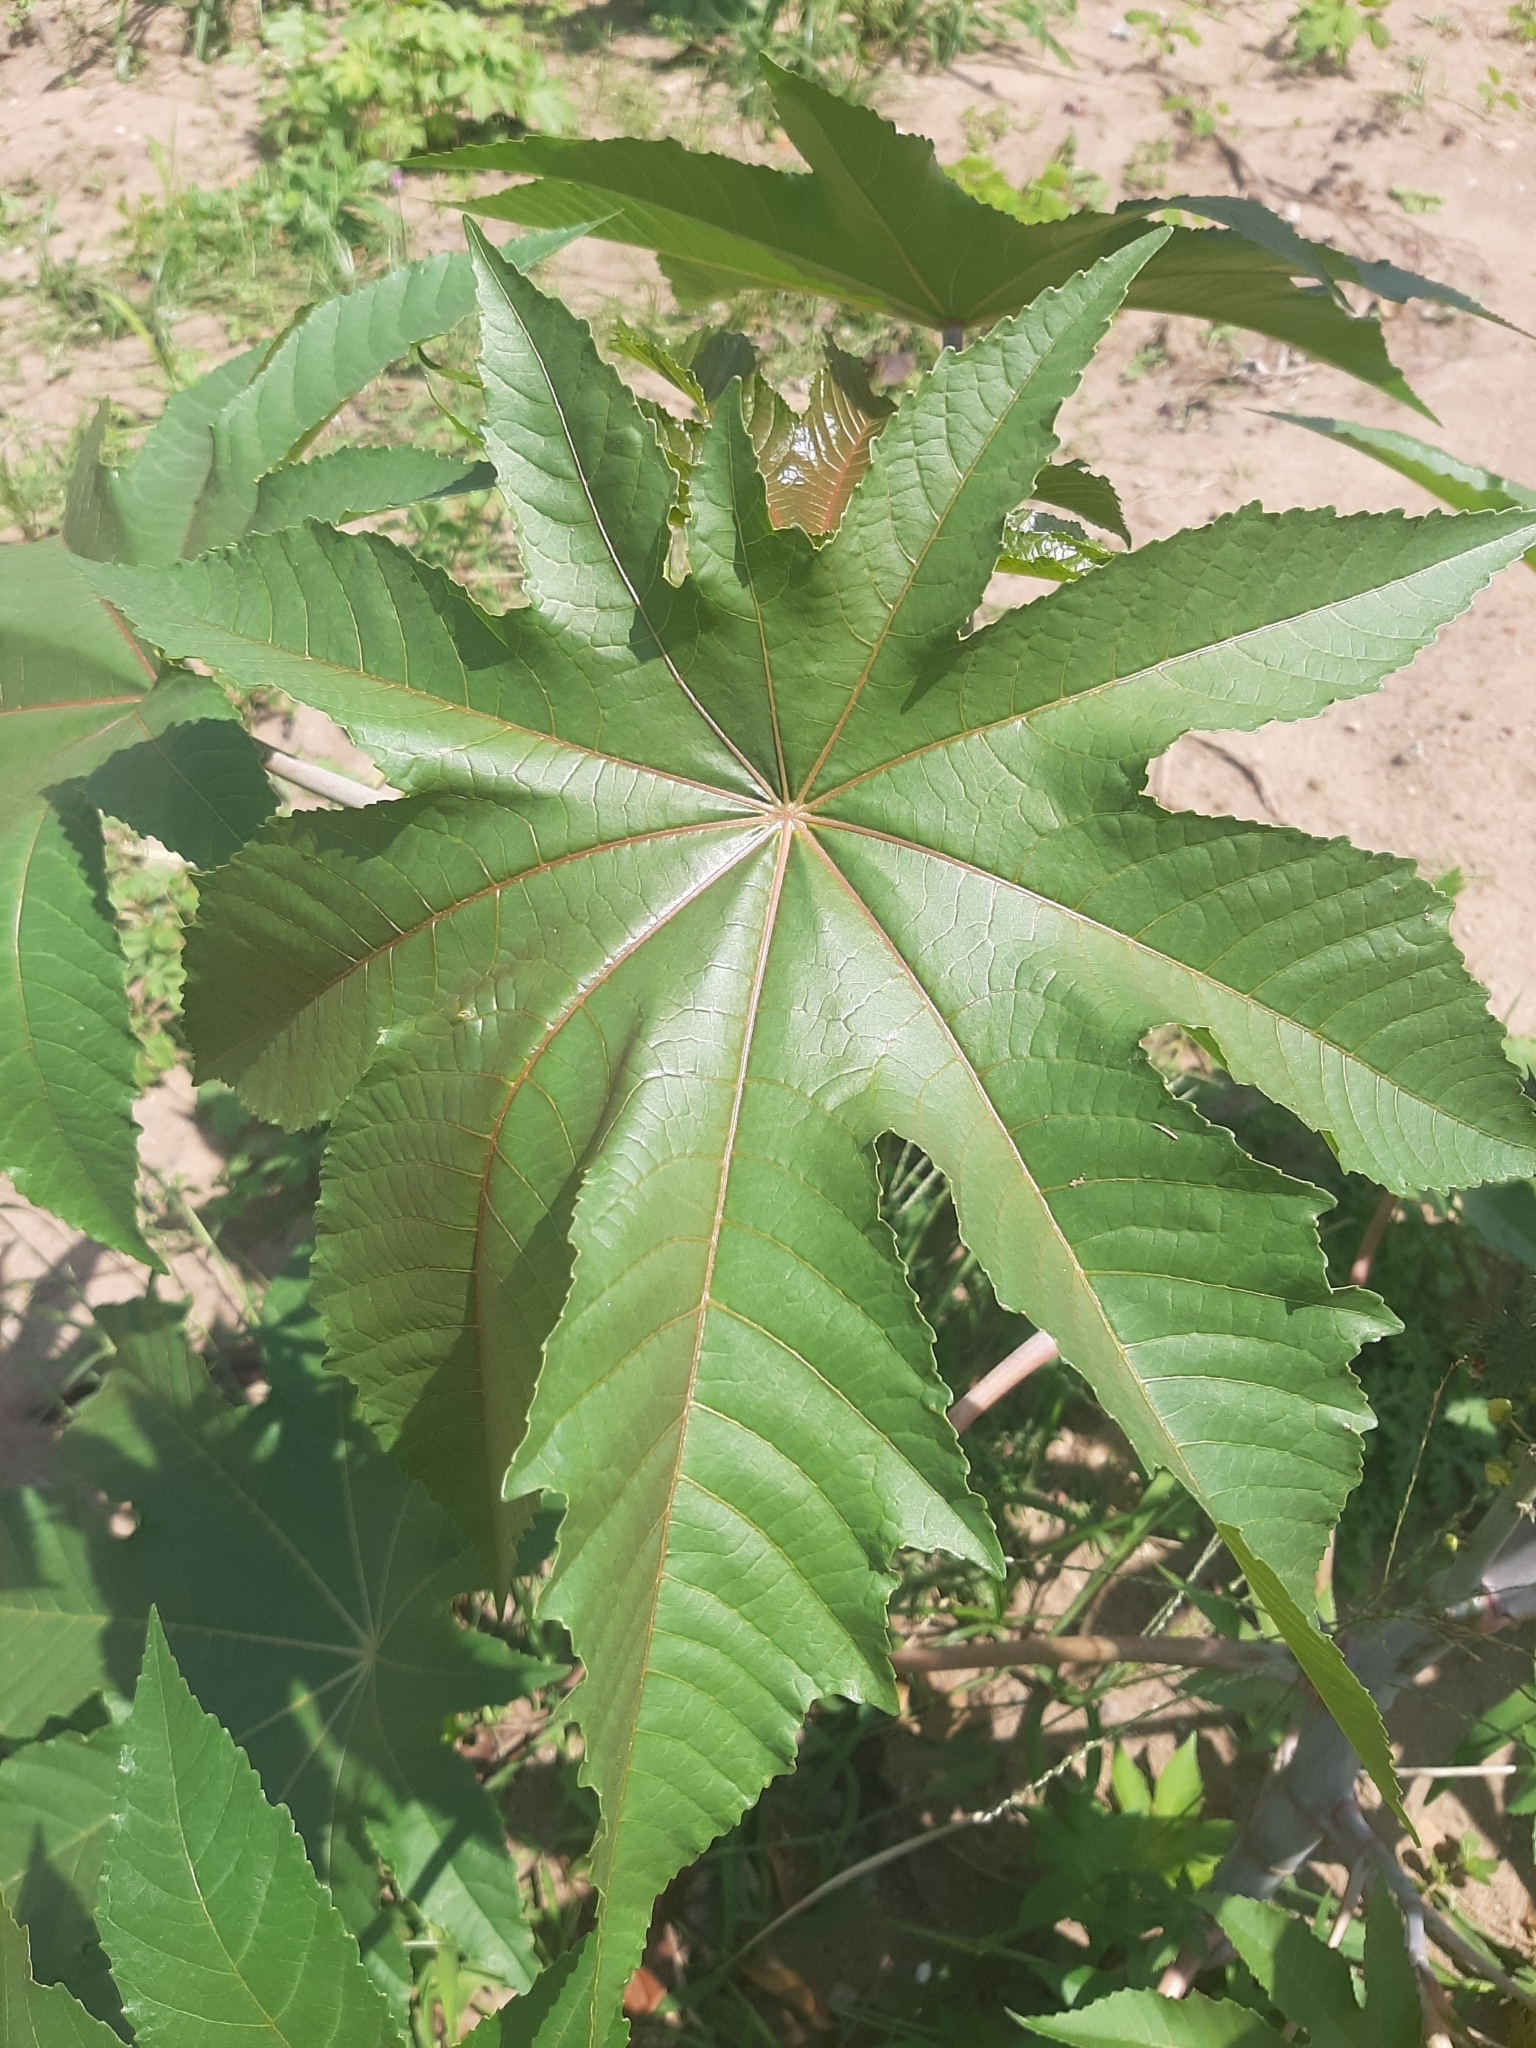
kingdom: Plantae
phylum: Tracheophyta
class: Magnoliopsida
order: Malpighiales
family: Euphorbiaceae
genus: Ricinus
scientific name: Ricinus communis
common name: Castor-oil-plant
